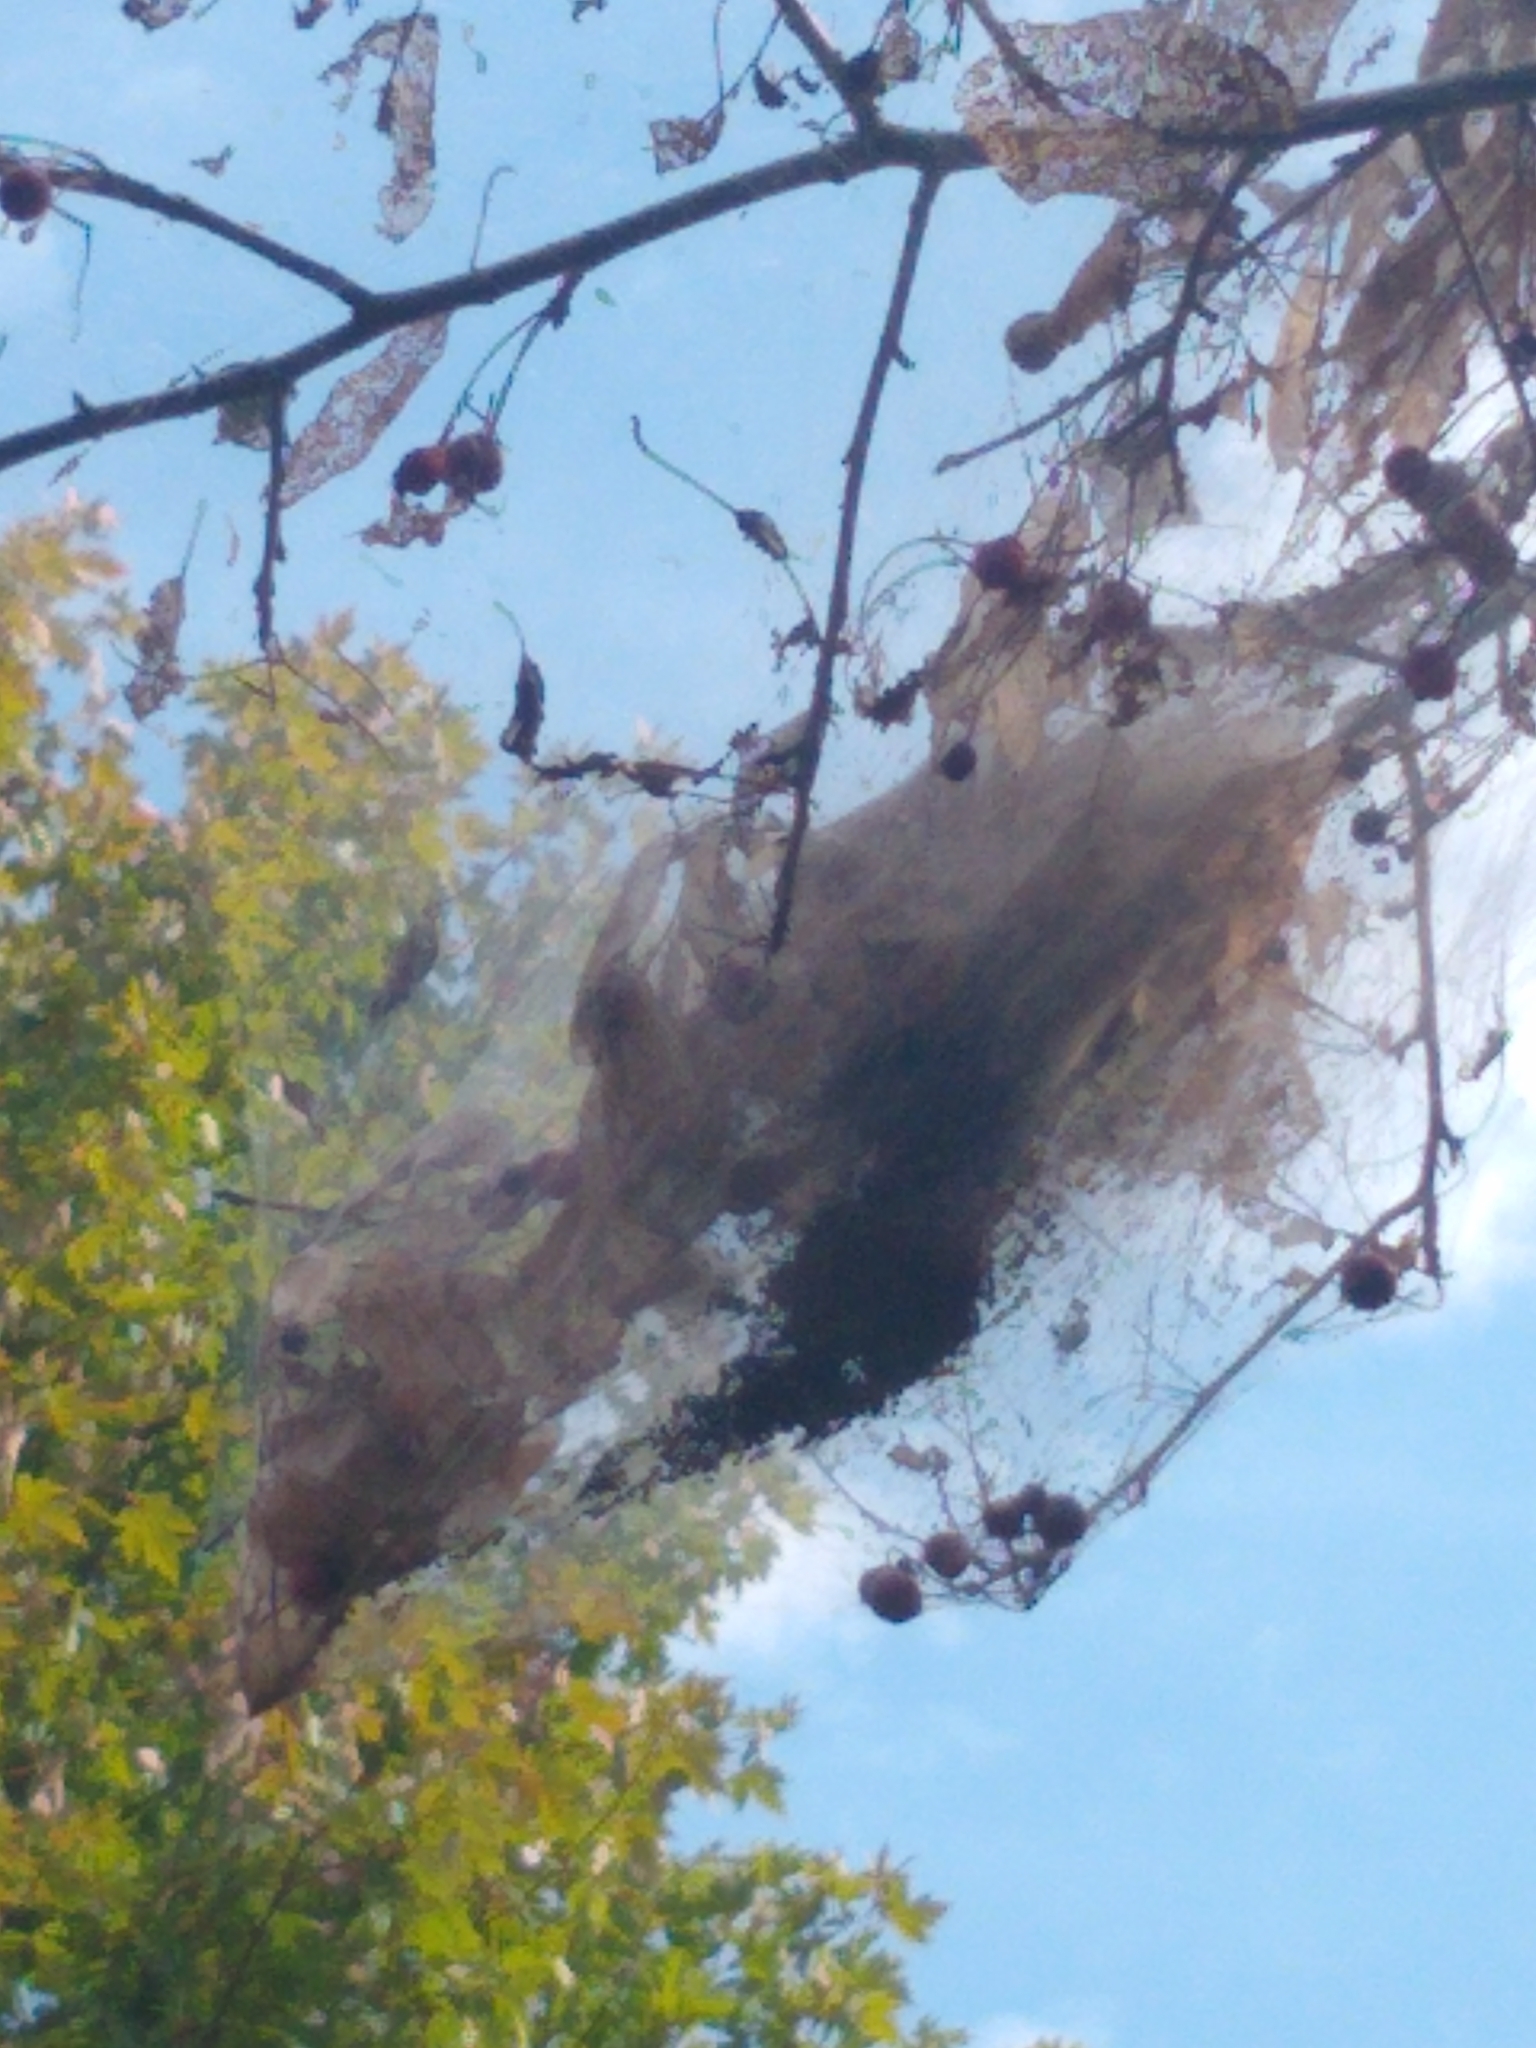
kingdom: Animalia
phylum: Arthropoda
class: Insecta
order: Lepidoptera
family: Erebidae
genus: Hyphantria
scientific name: Hyphantria cunea
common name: American white moth
